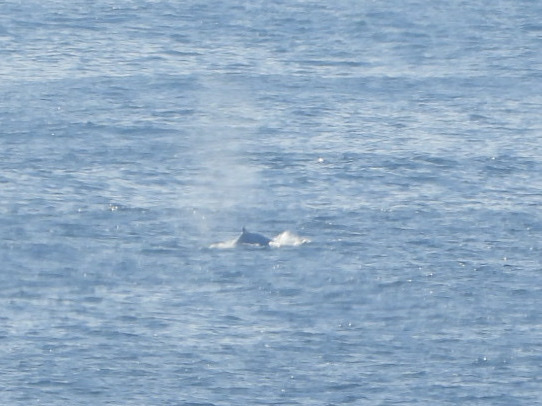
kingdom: Animalia
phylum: Chordata
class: Mammalia
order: Cetacea
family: Balaenopteridae
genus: Megaptera
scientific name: Megaptera novaeangliae
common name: Humpback whale
